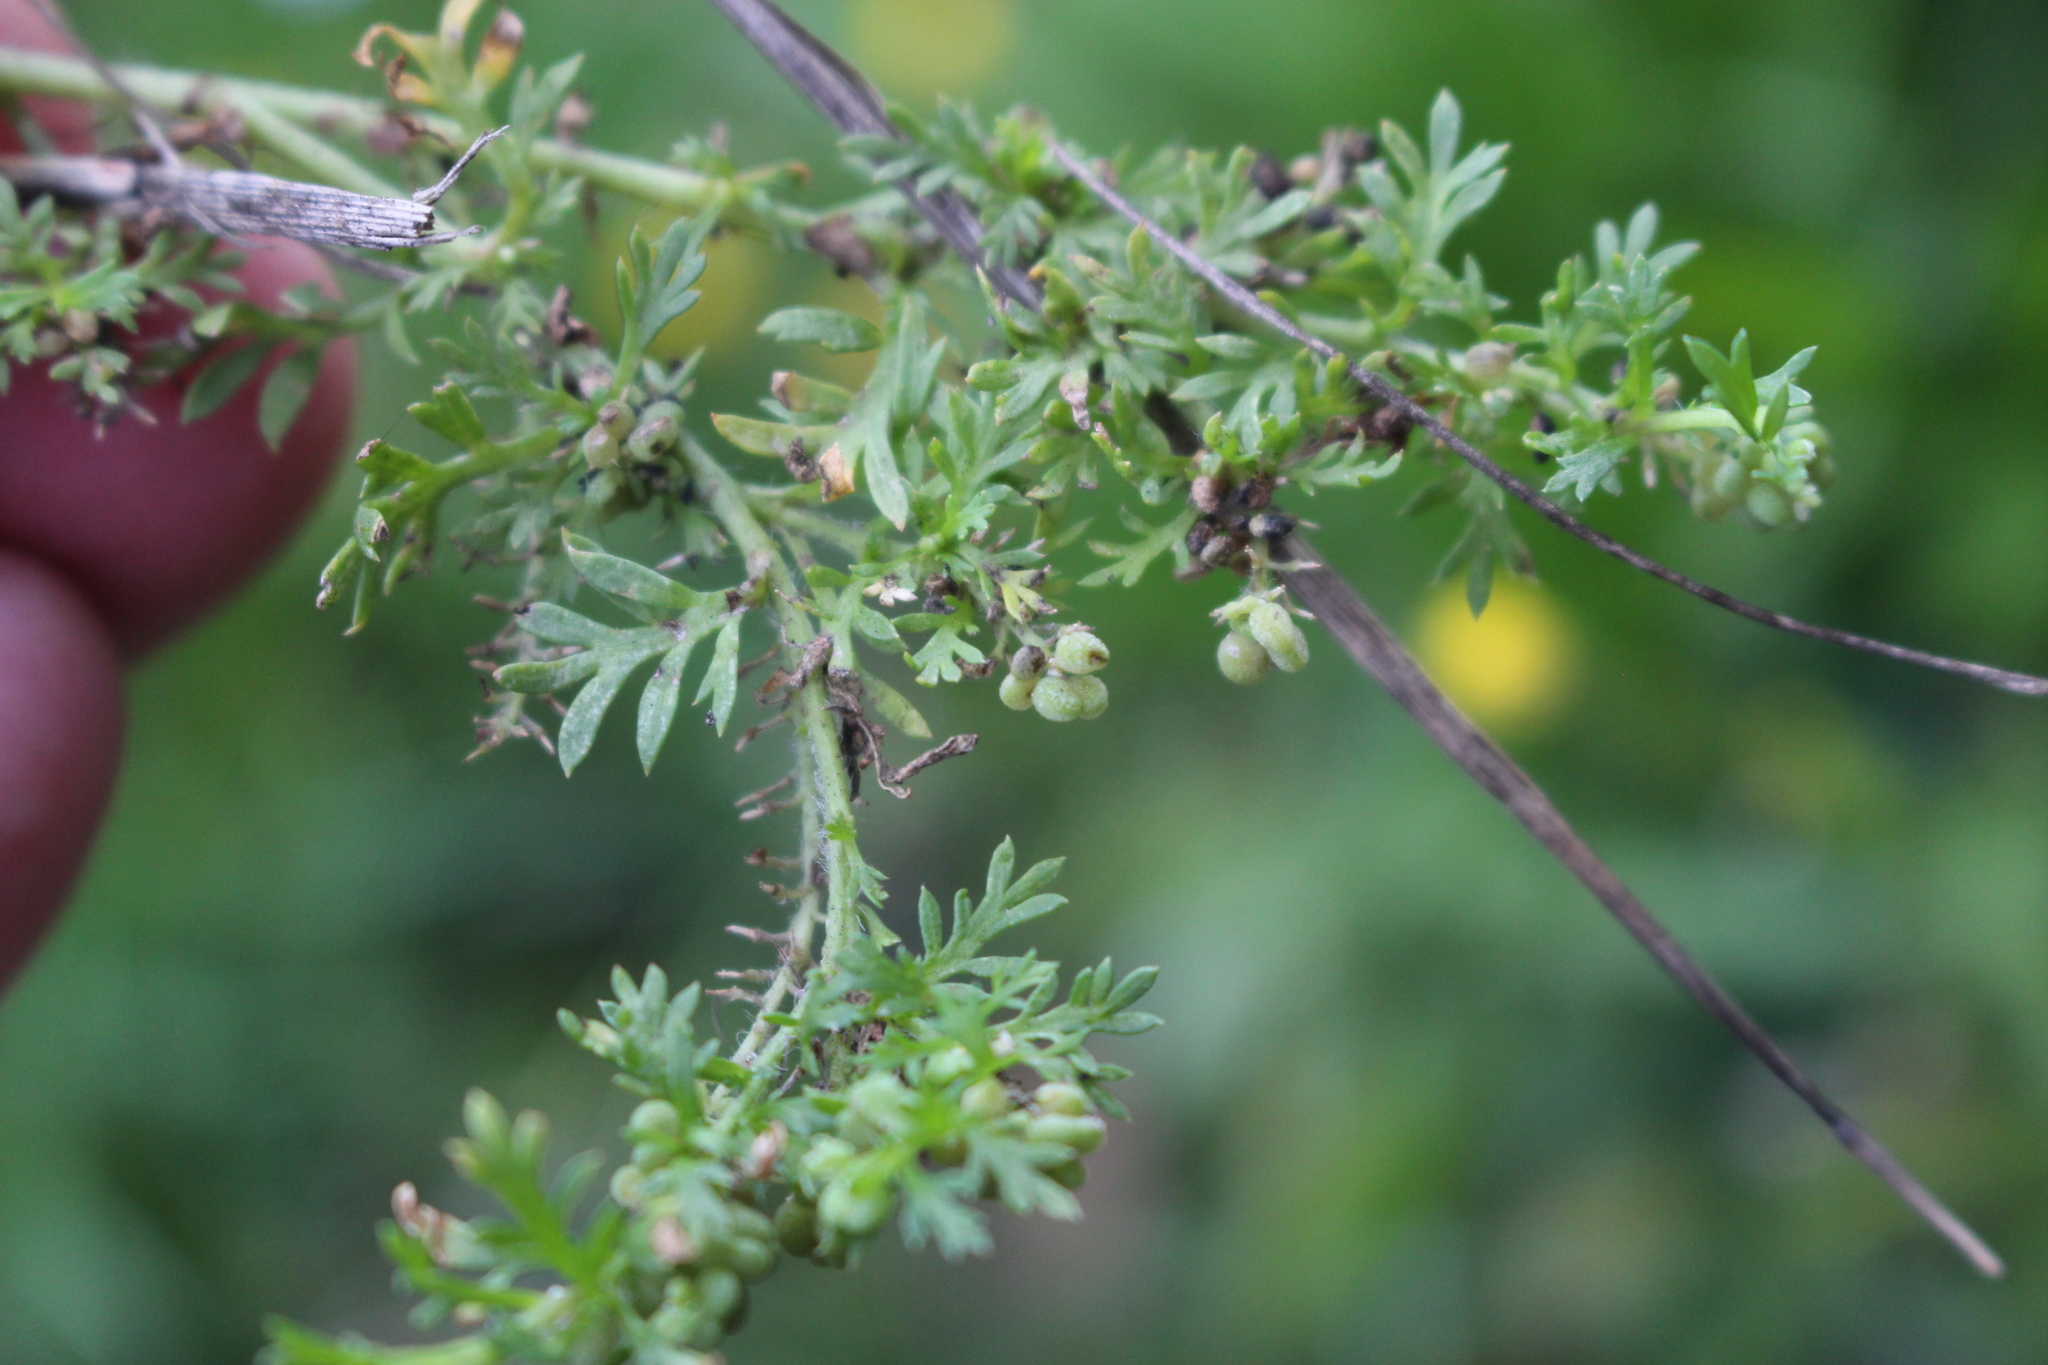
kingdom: Plantae
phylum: Tracheophyta
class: Magnoliopsida
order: Brassicales
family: Brassicaceae
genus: Lepidium
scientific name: Lepidium didymum
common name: Lesser swinecress
